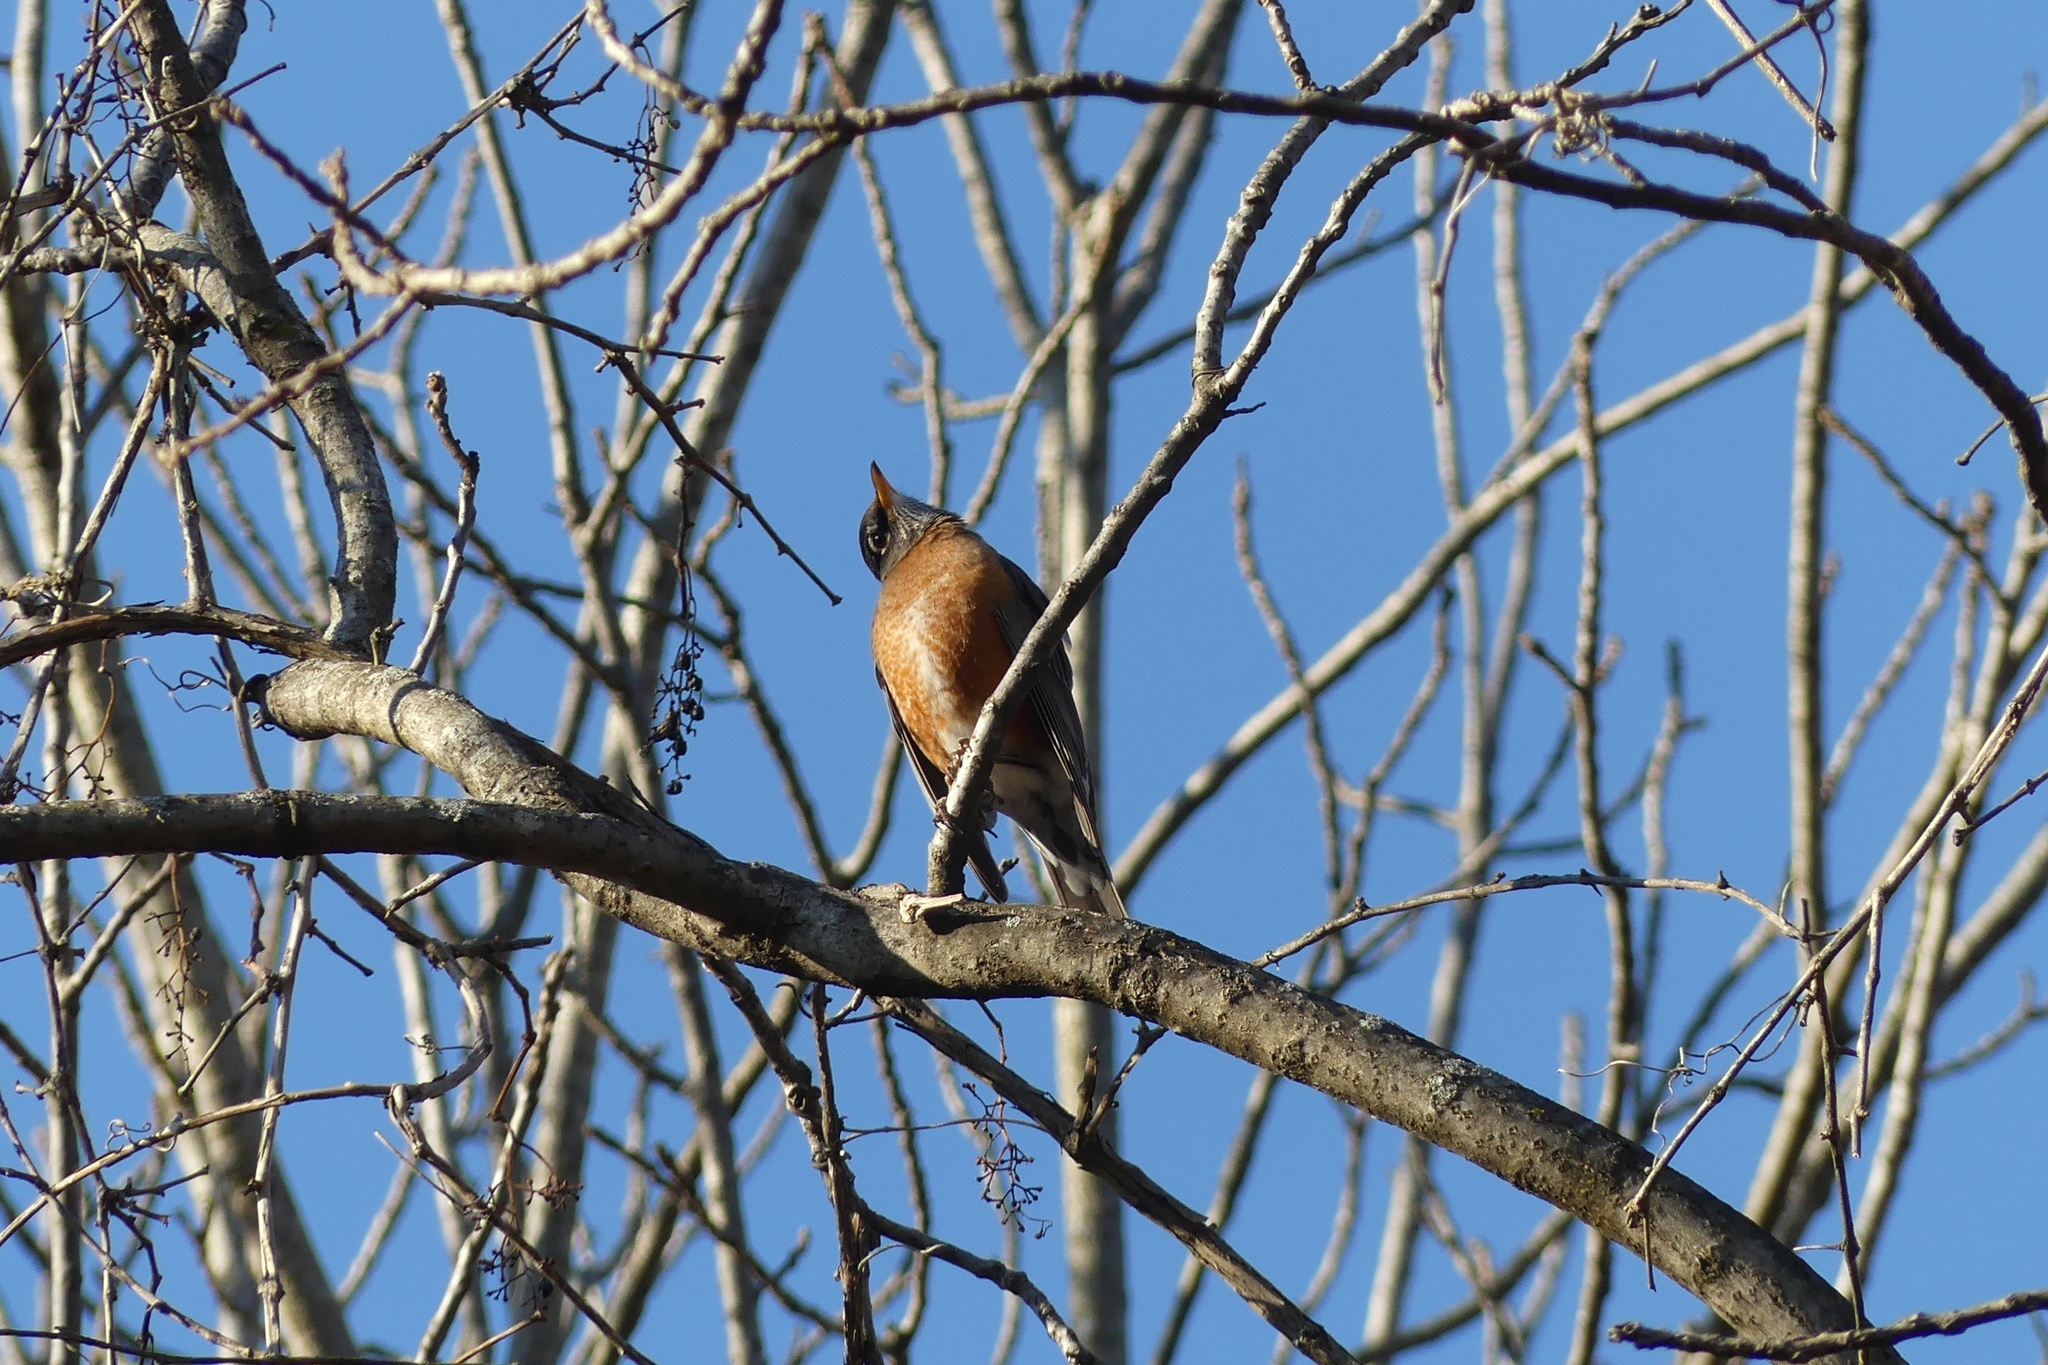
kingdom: Animalia
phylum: Chordata
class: Aves
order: Passeriformes
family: Turdidae
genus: Turdus
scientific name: Turdus migratorius
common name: American robin
